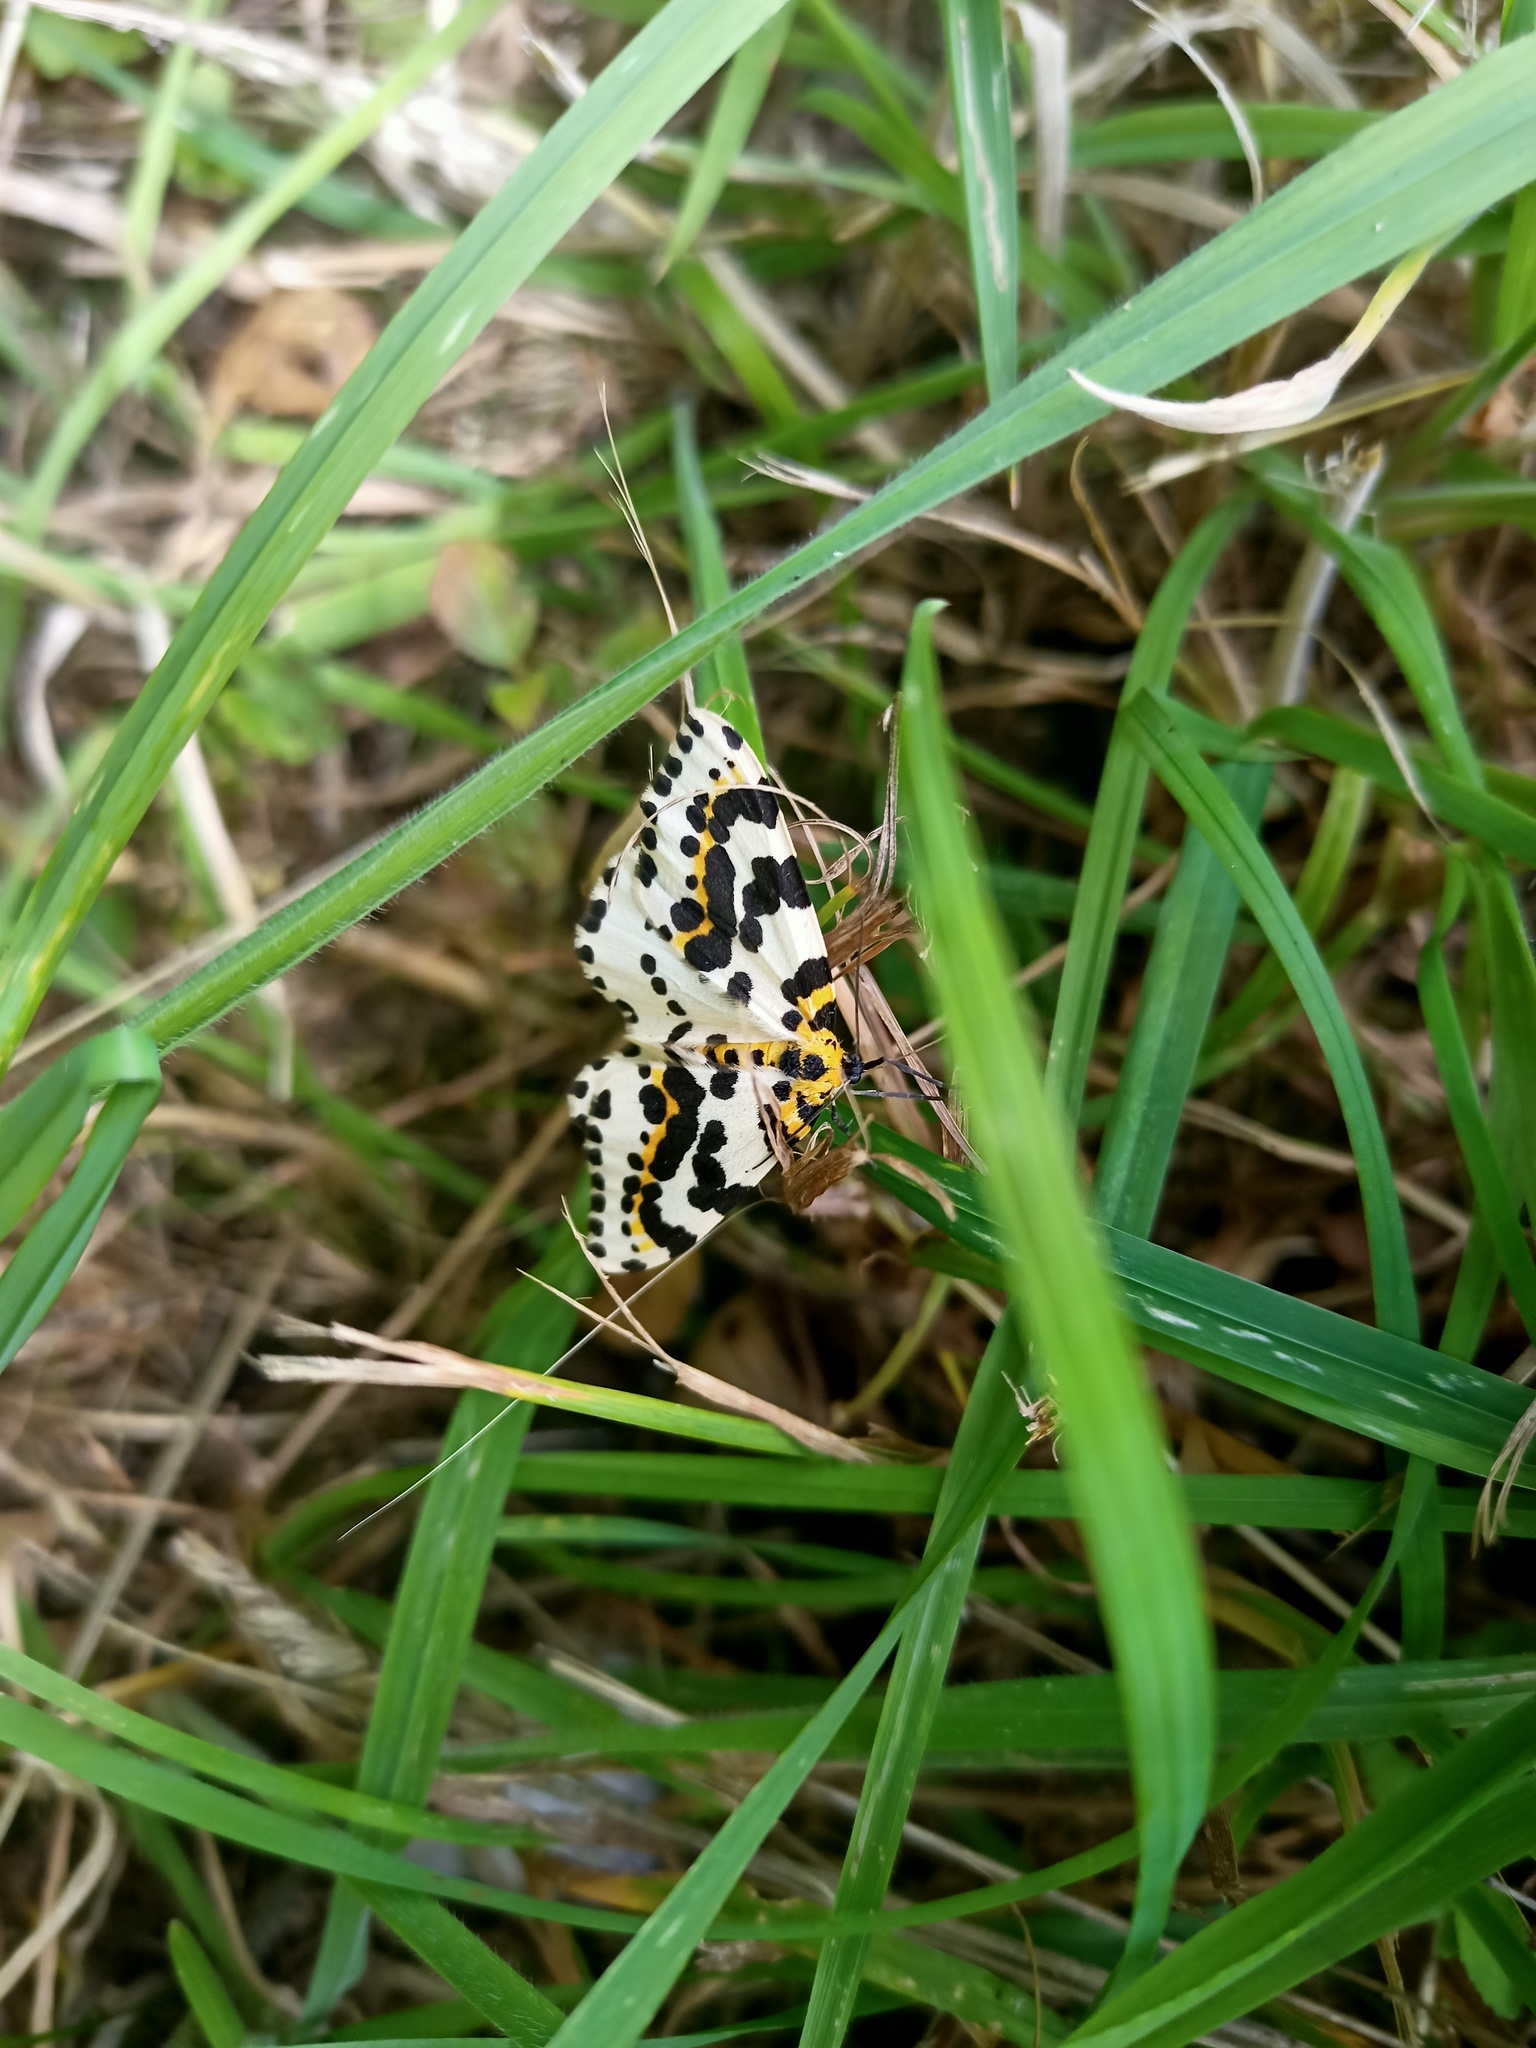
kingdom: Animalia
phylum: Arthropoda
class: Insecta
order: Lepidoptera
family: Geometridae
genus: Abraxas
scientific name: Abraxas grossulariata
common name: Magpie
